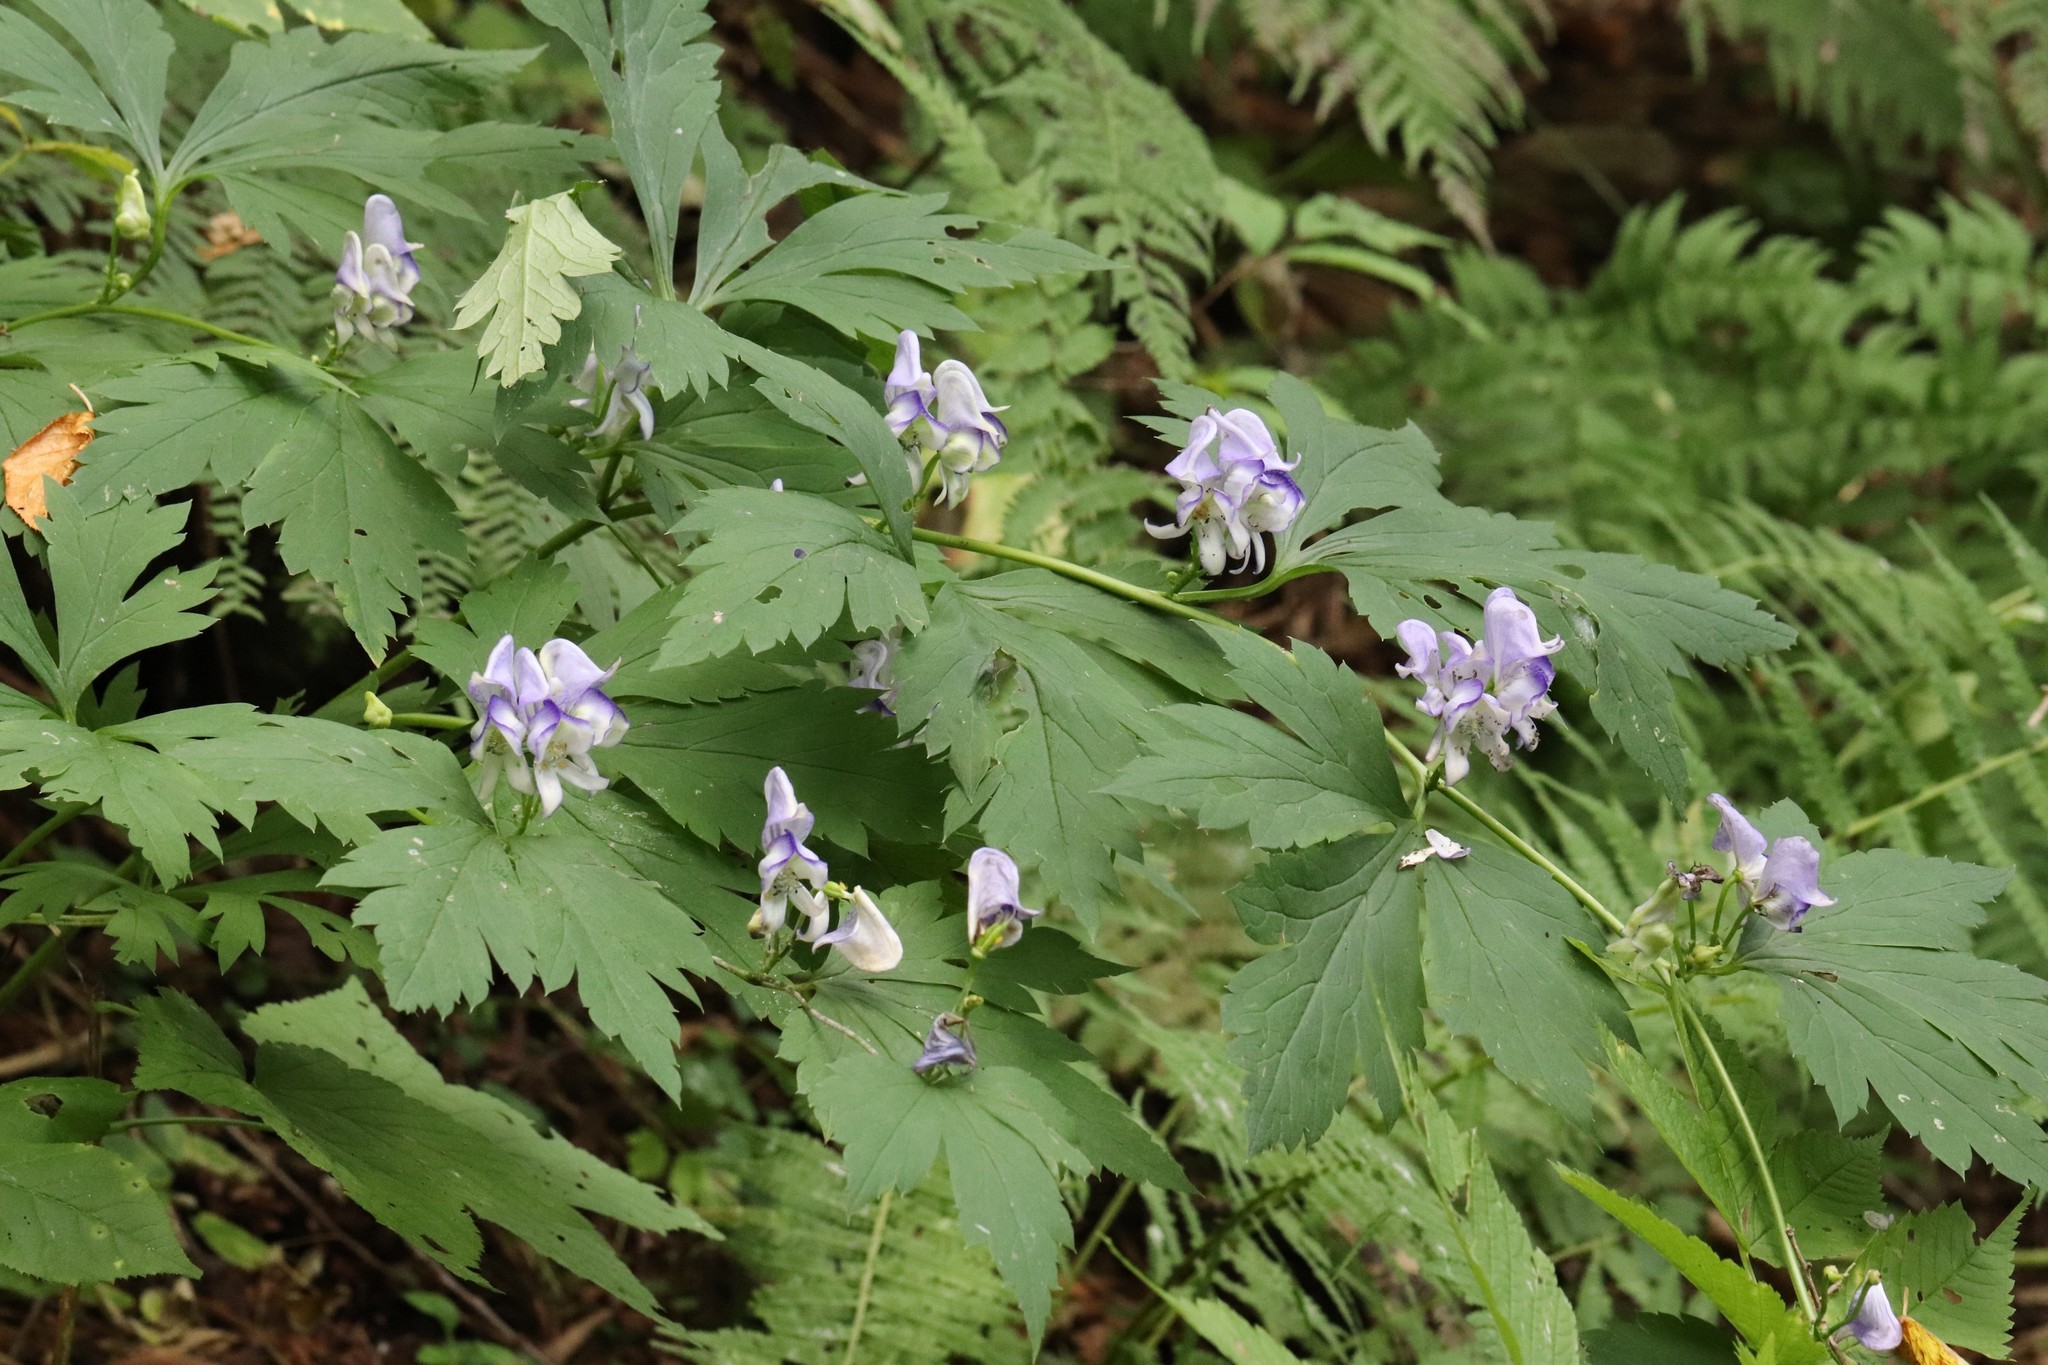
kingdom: Plantae
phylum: Tracheophyta
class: Magnoliopsida
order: Ranunculales
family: Ranunculaceae
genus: Aconitum
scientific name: Aconitum sczukinii
